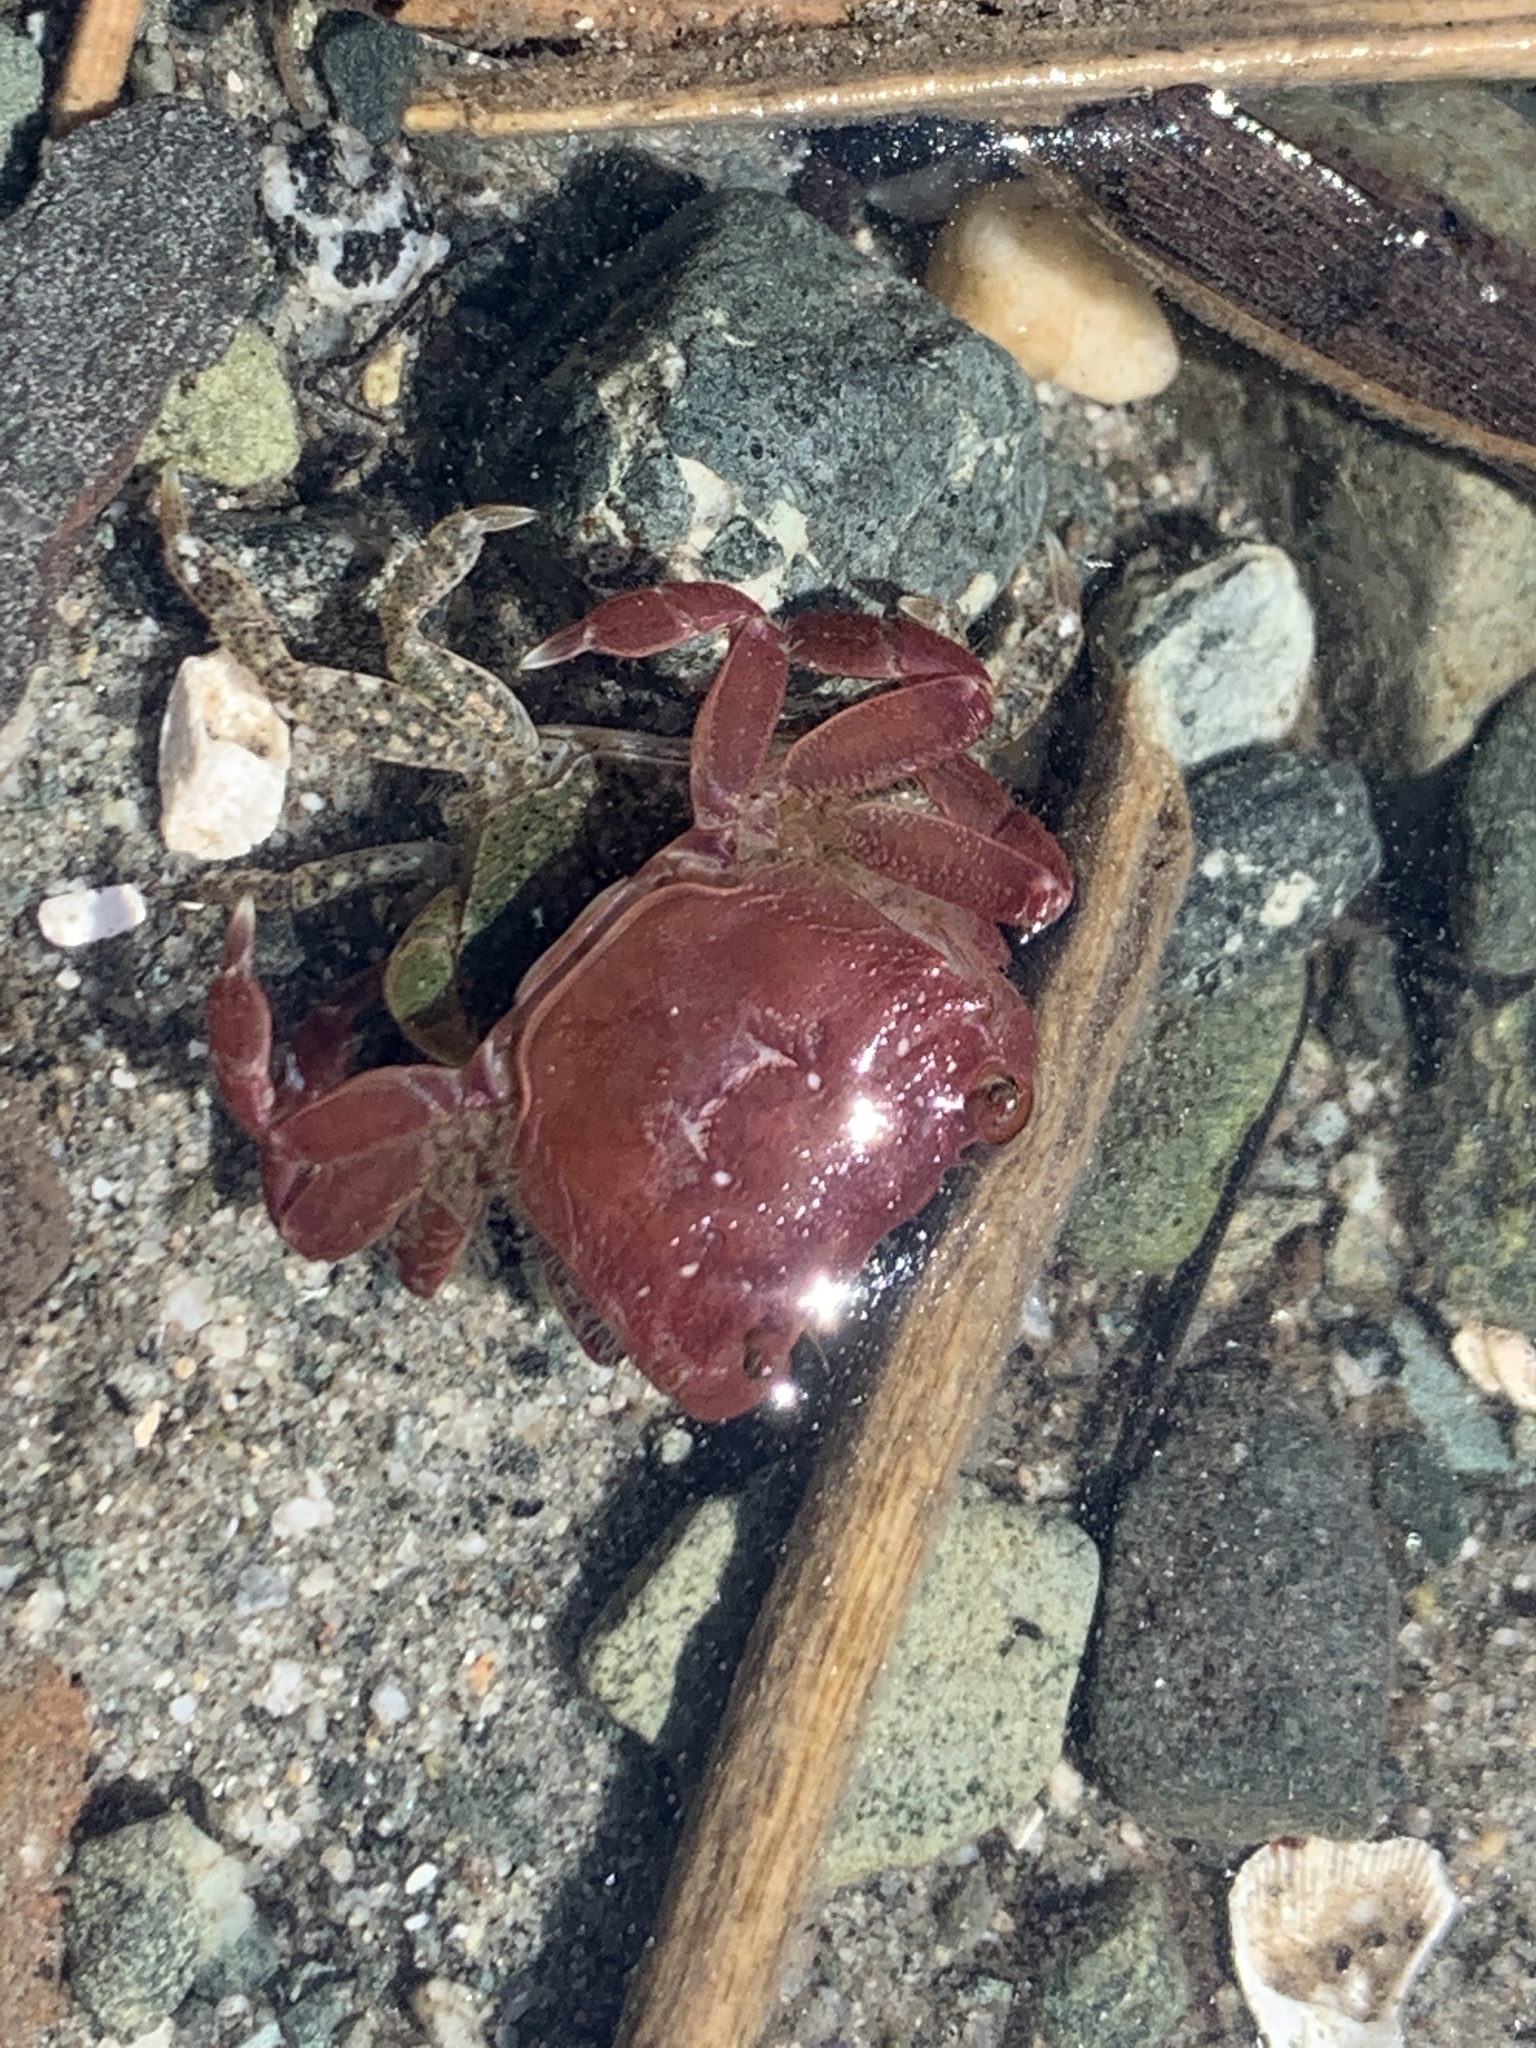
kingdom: Animalia
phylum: Arthropoda
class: Malacostraca
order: Decapoda
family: Varunidae
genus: Hemigrapsus
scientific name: Hemigrapsus oregonensis
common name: Yellow shore crab
